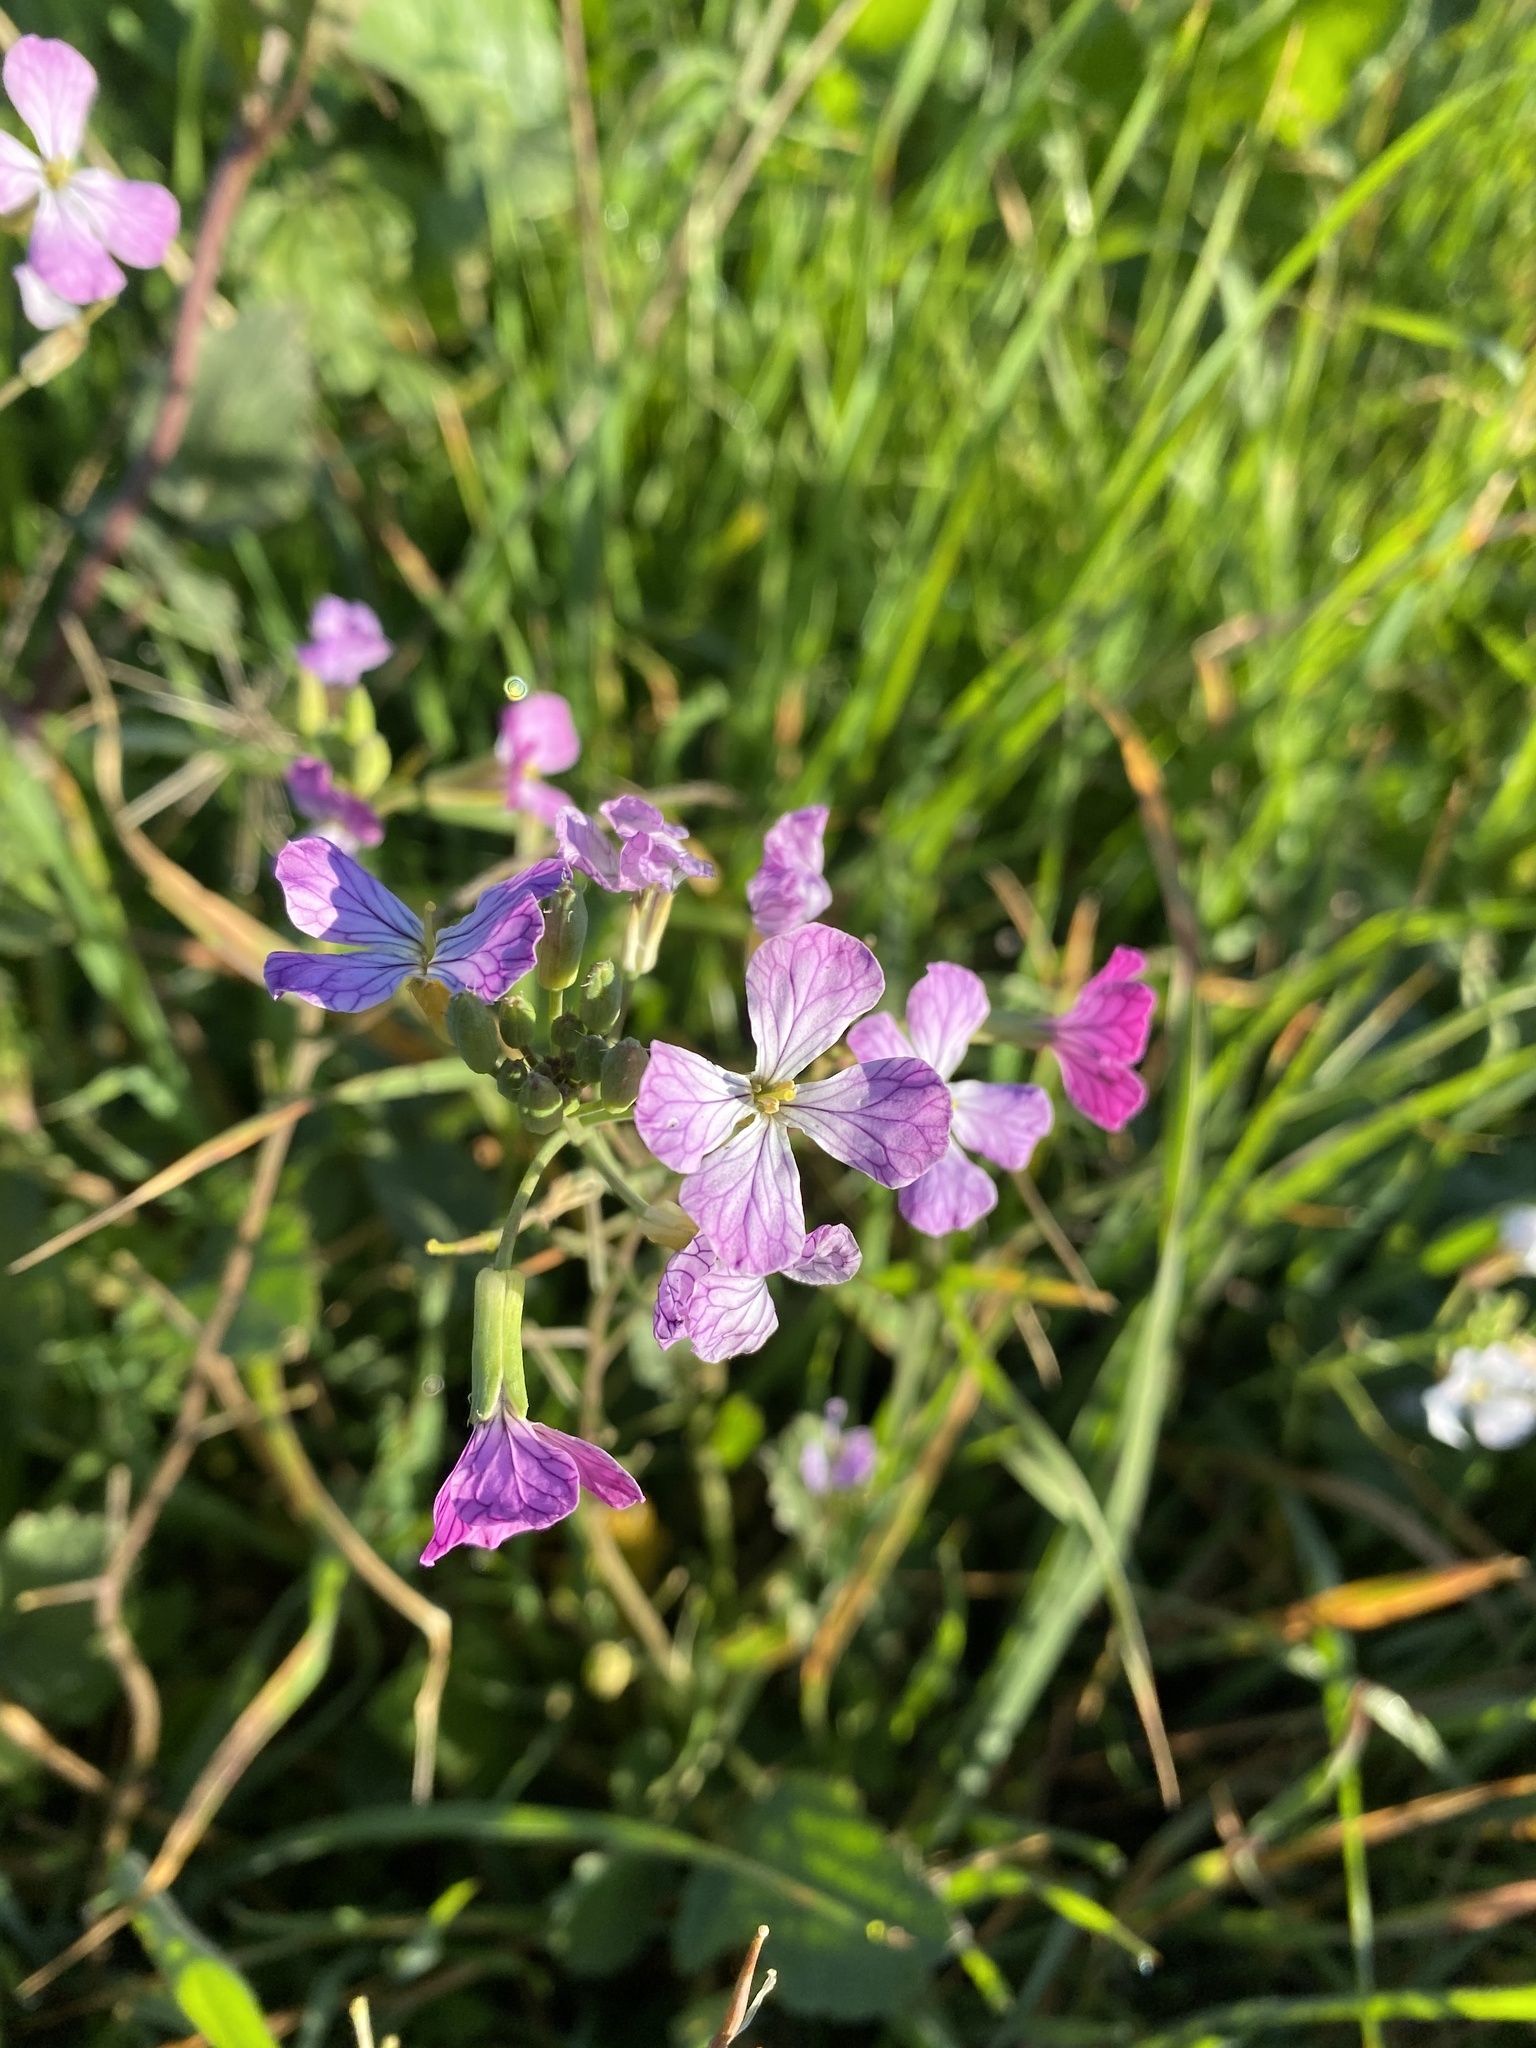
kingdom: Plantae
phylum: Tracheophyta
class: Magnoliopsida
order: Brassicales
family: Brassicaceae
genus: Raphanus
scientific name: Raphanus sativus
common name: Cultivated radish
